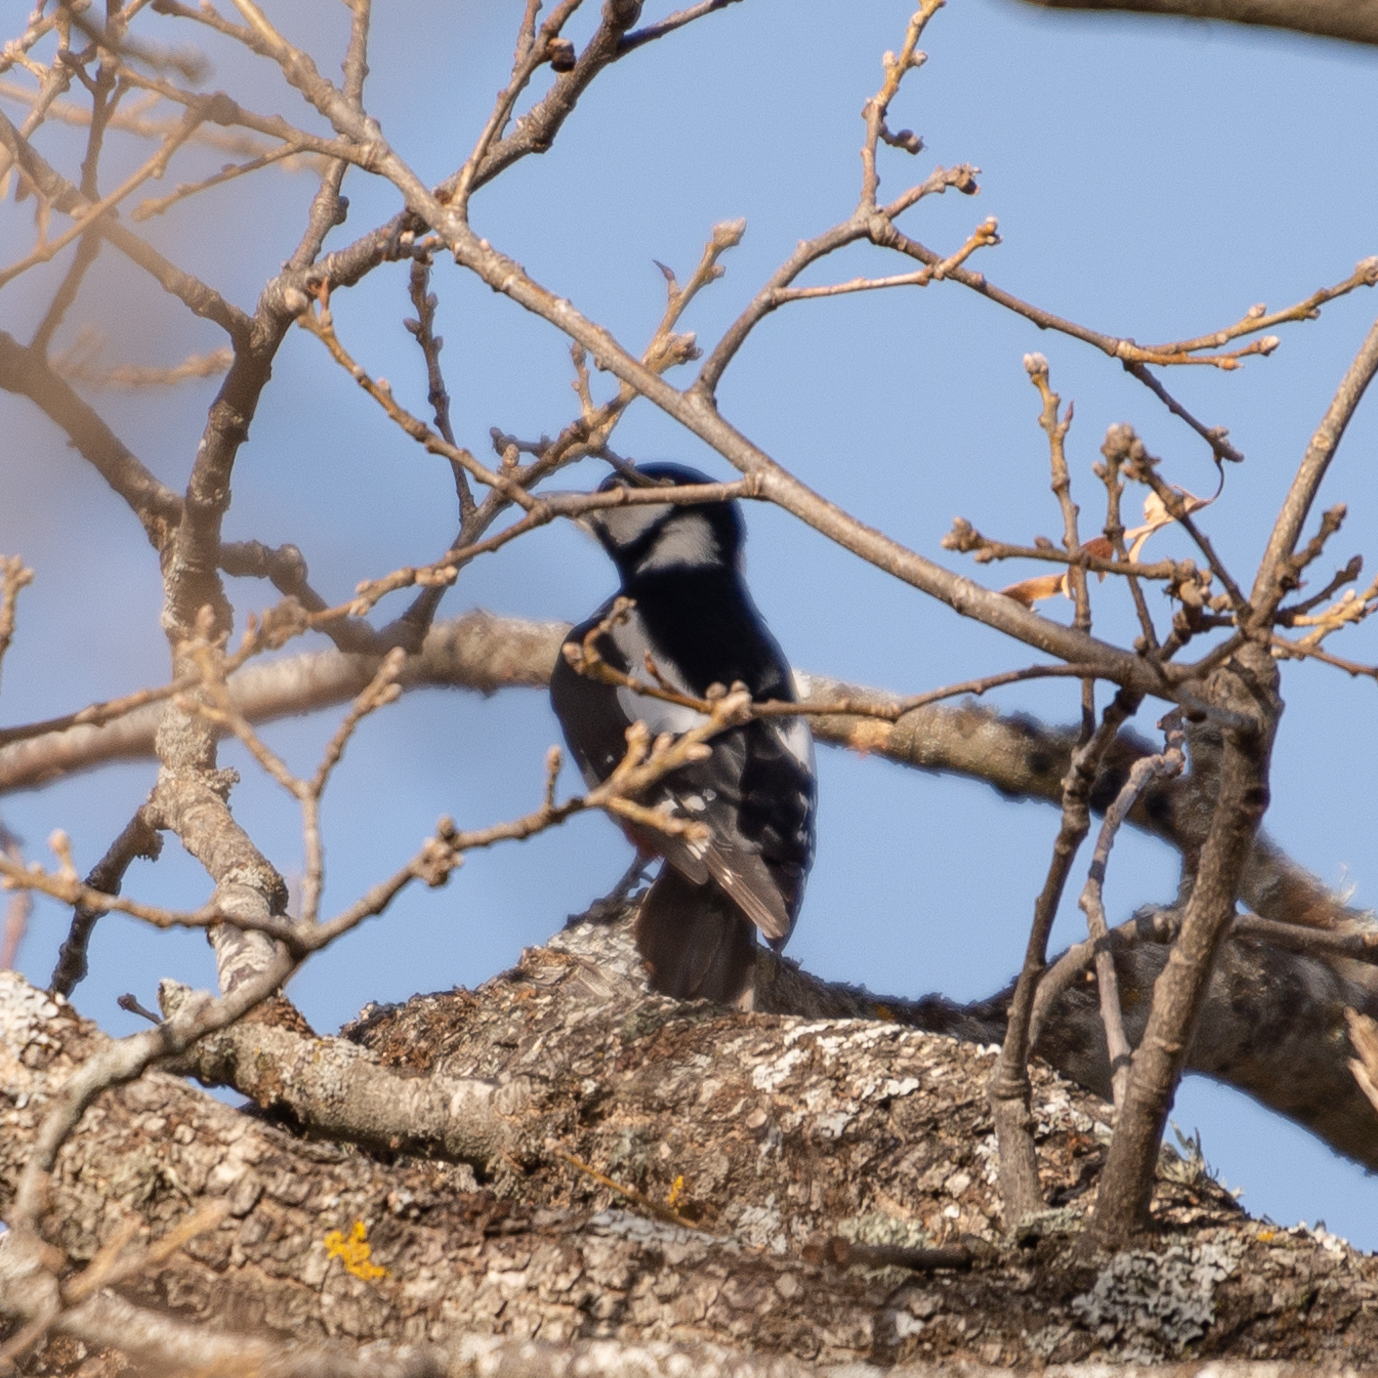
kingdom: Animalia
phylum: Chordata
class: Aves
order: Piciformes
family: Picidae
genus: Dendrocopos
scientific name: Dendrocopos major
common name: Great spotted woodpecker
